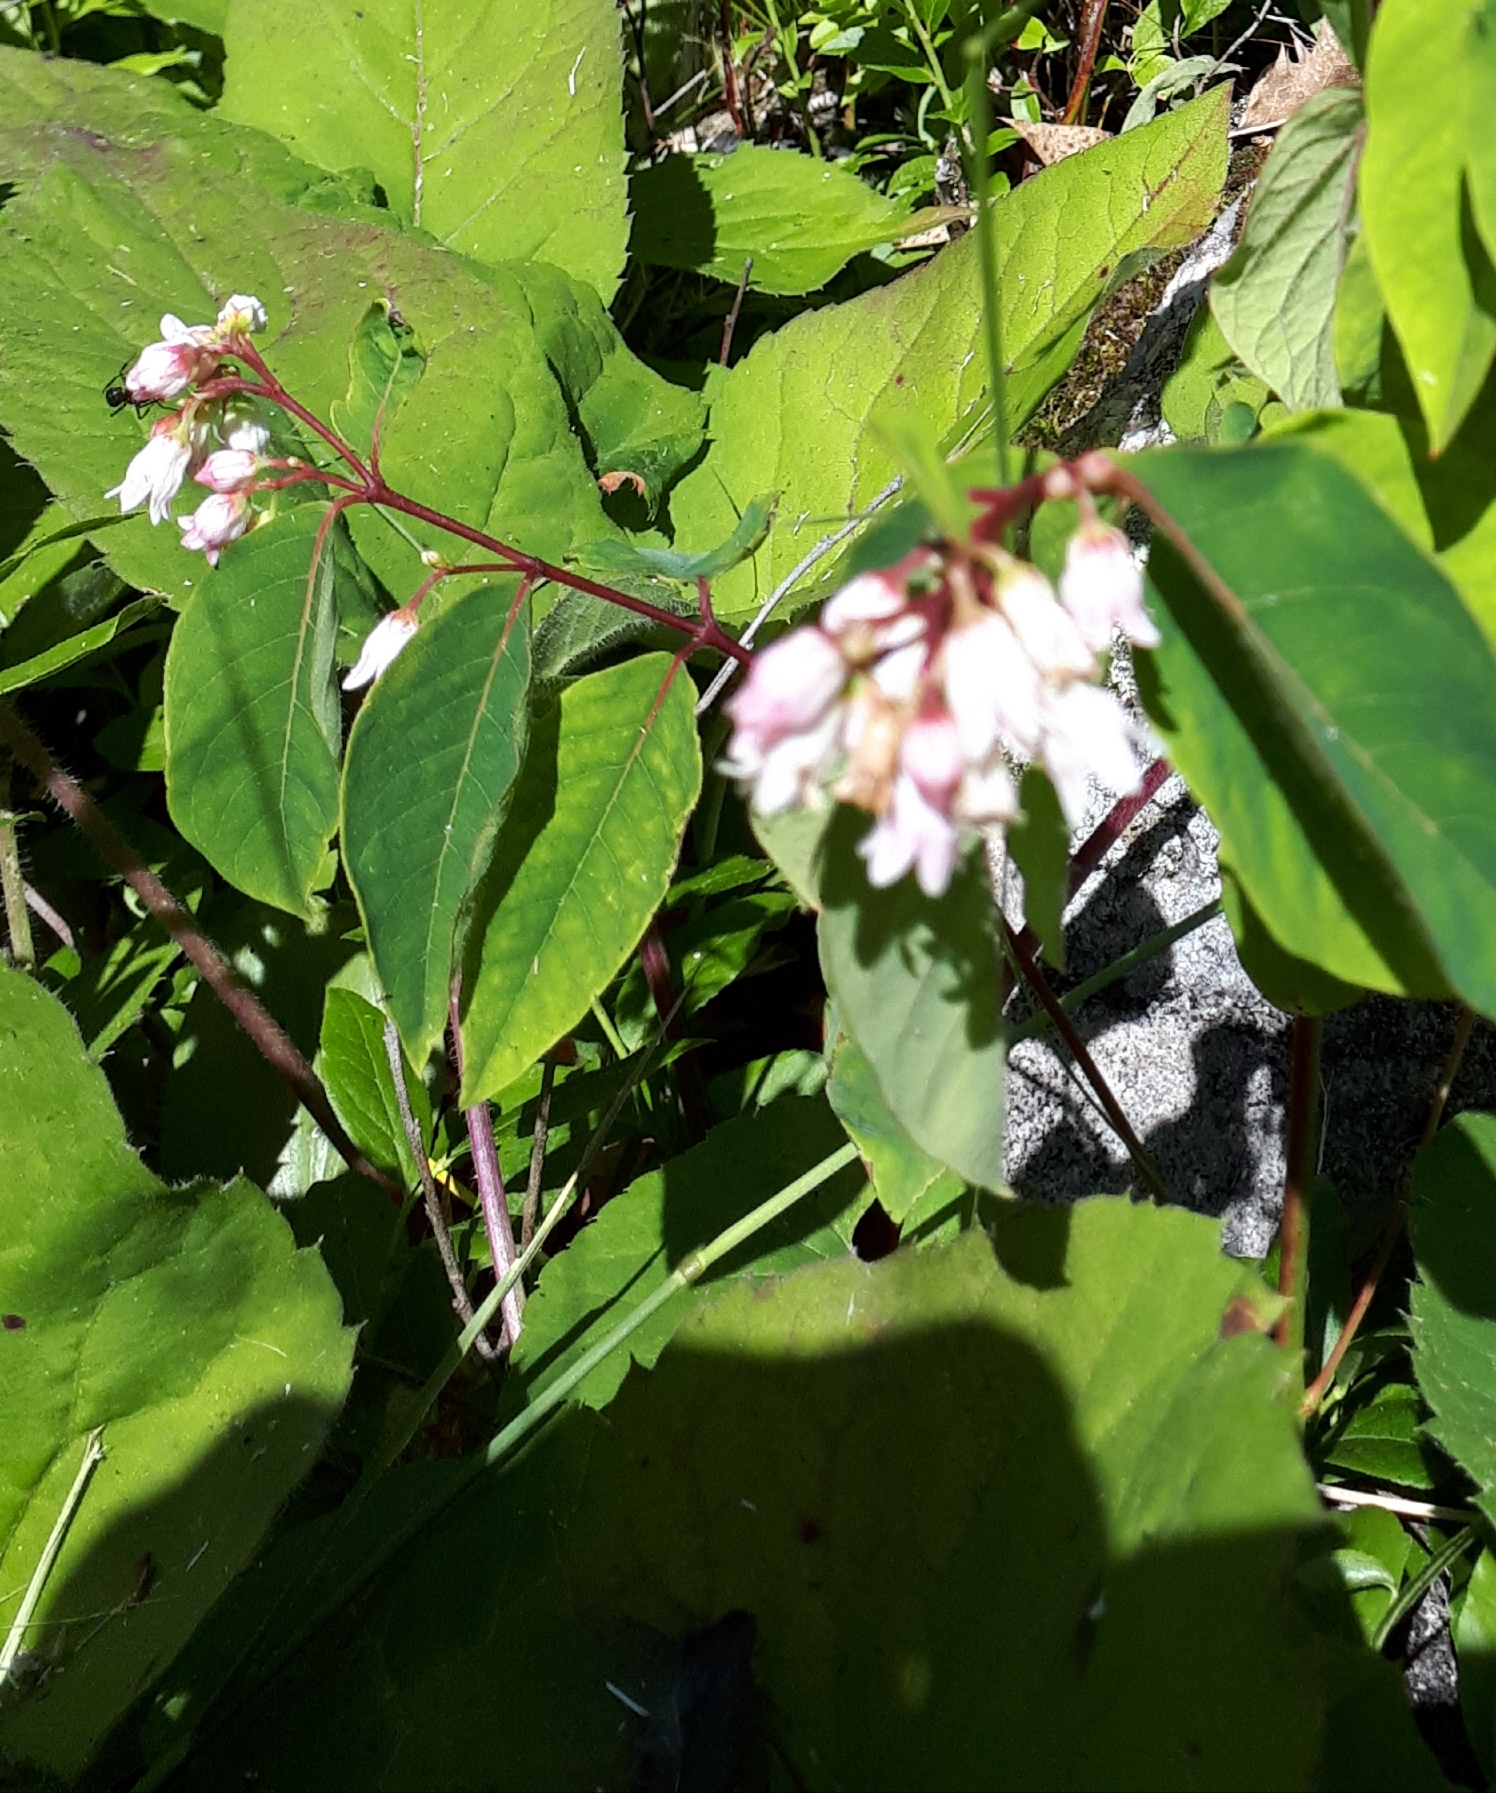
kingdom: Plantae
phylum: Tracheophyta
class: Magnoliopsida
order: Gentianales
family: Apocynaceae
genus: Apocynum
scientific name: Apocynum androsaemifolium
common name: Spreading dogbane
